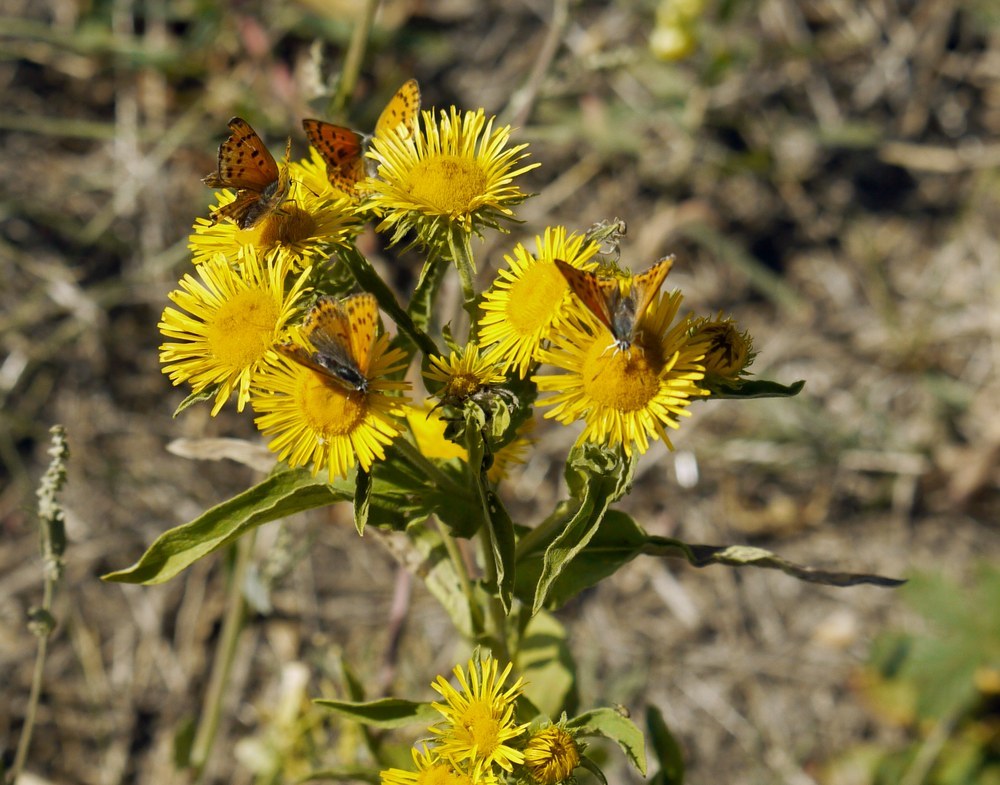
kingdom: Plantae
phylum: Tracheophyta
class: Magnoliopsida
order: Asterales
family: Asteraceae
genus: Pentanema
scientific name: Pentanema britannicum
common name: British elecampane
